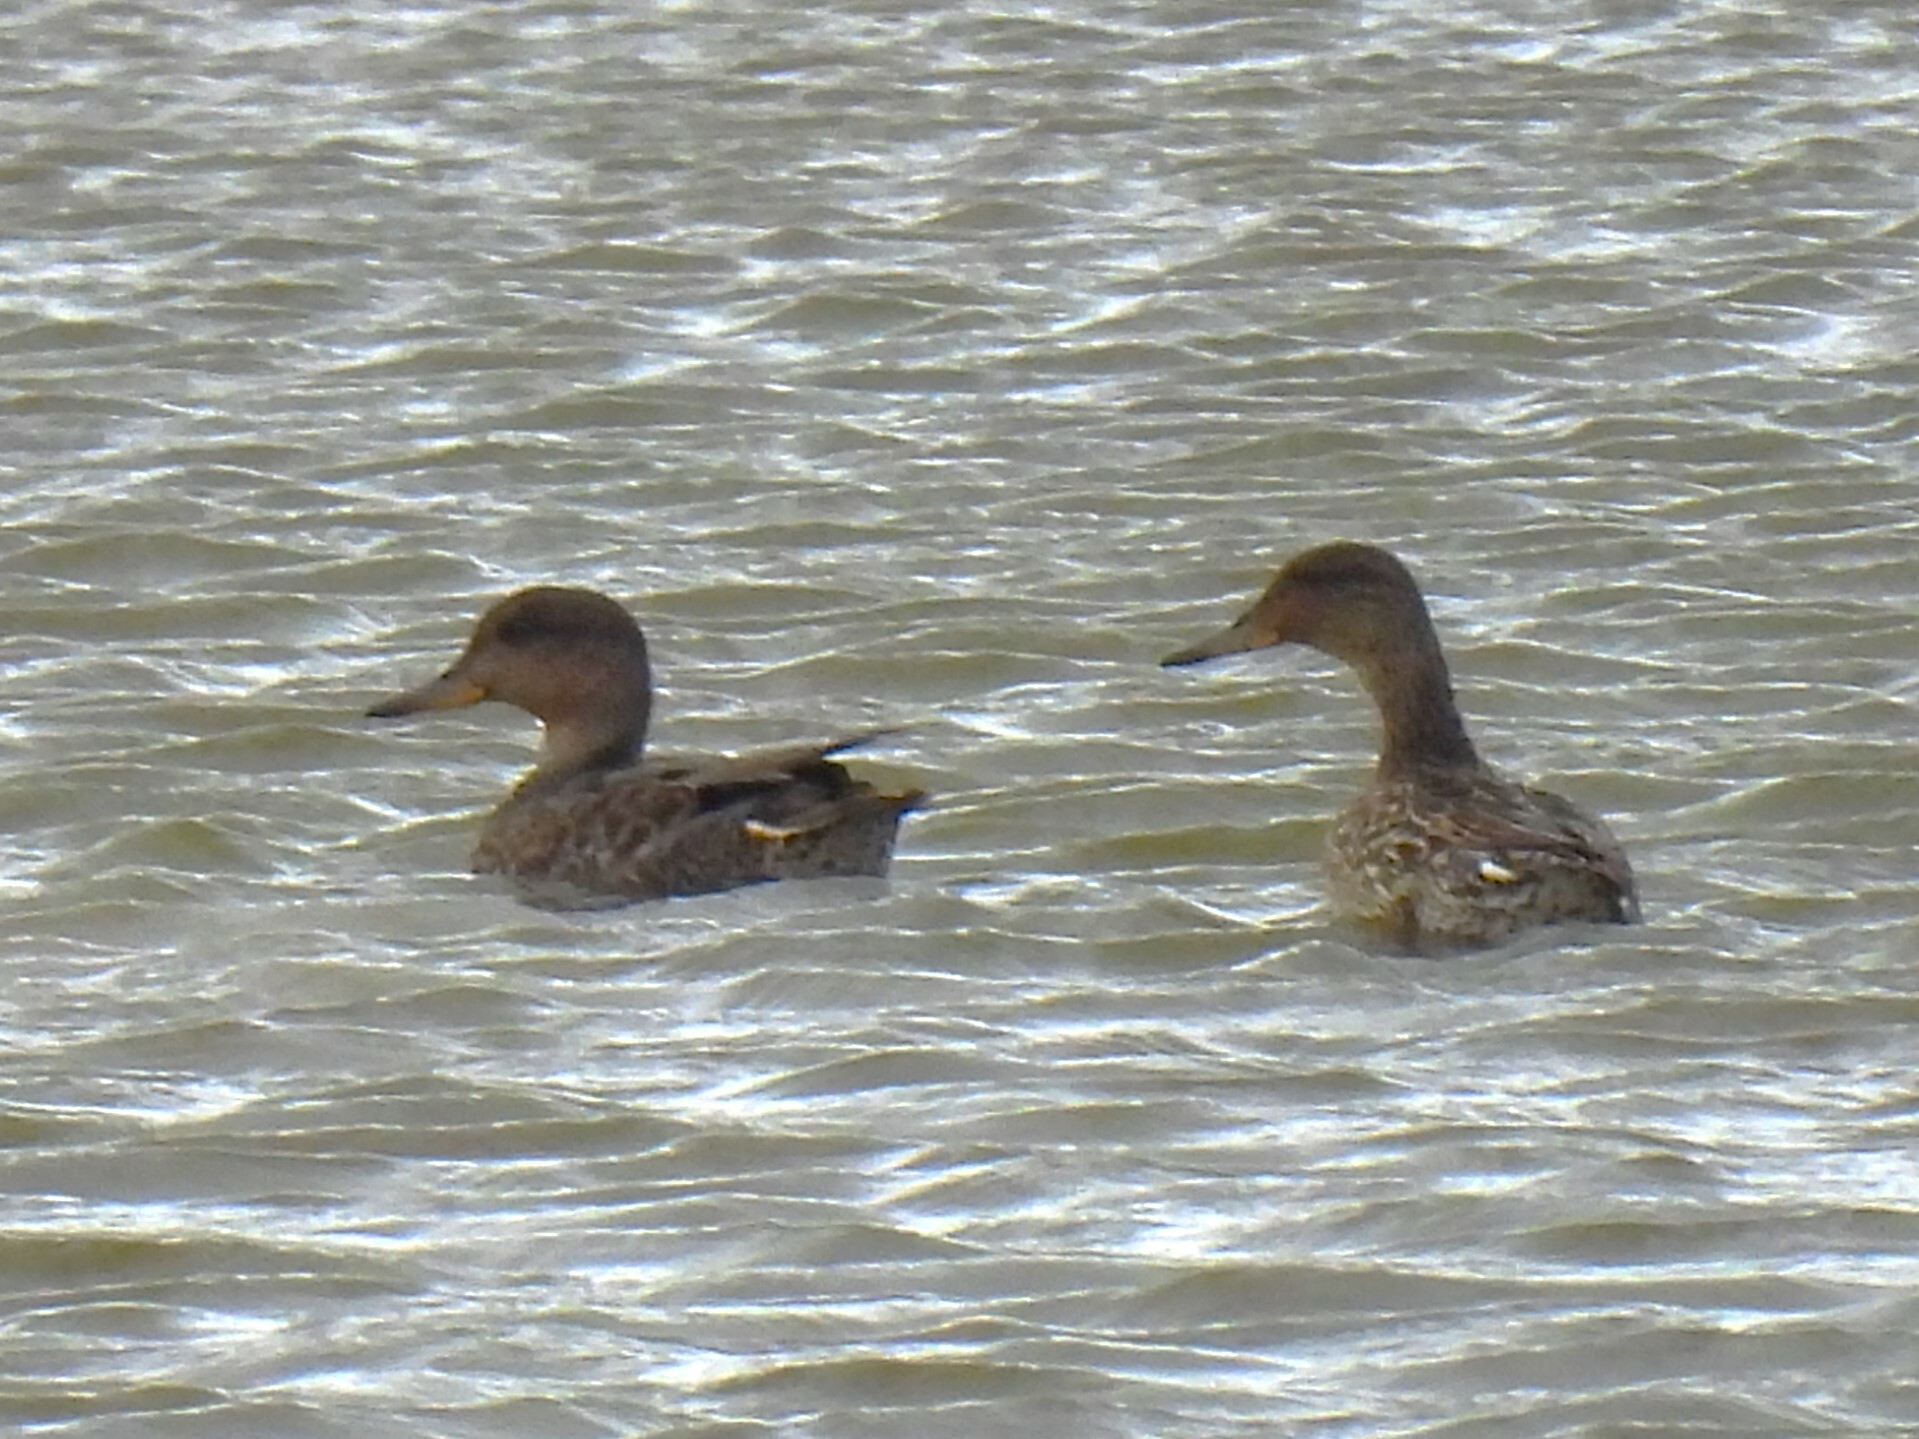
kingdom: Animalia
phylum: Chordata
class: Aves
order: Anseriformes
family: Anatidae
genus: Anas
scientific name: Anas crecca
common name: Eurasian teal
